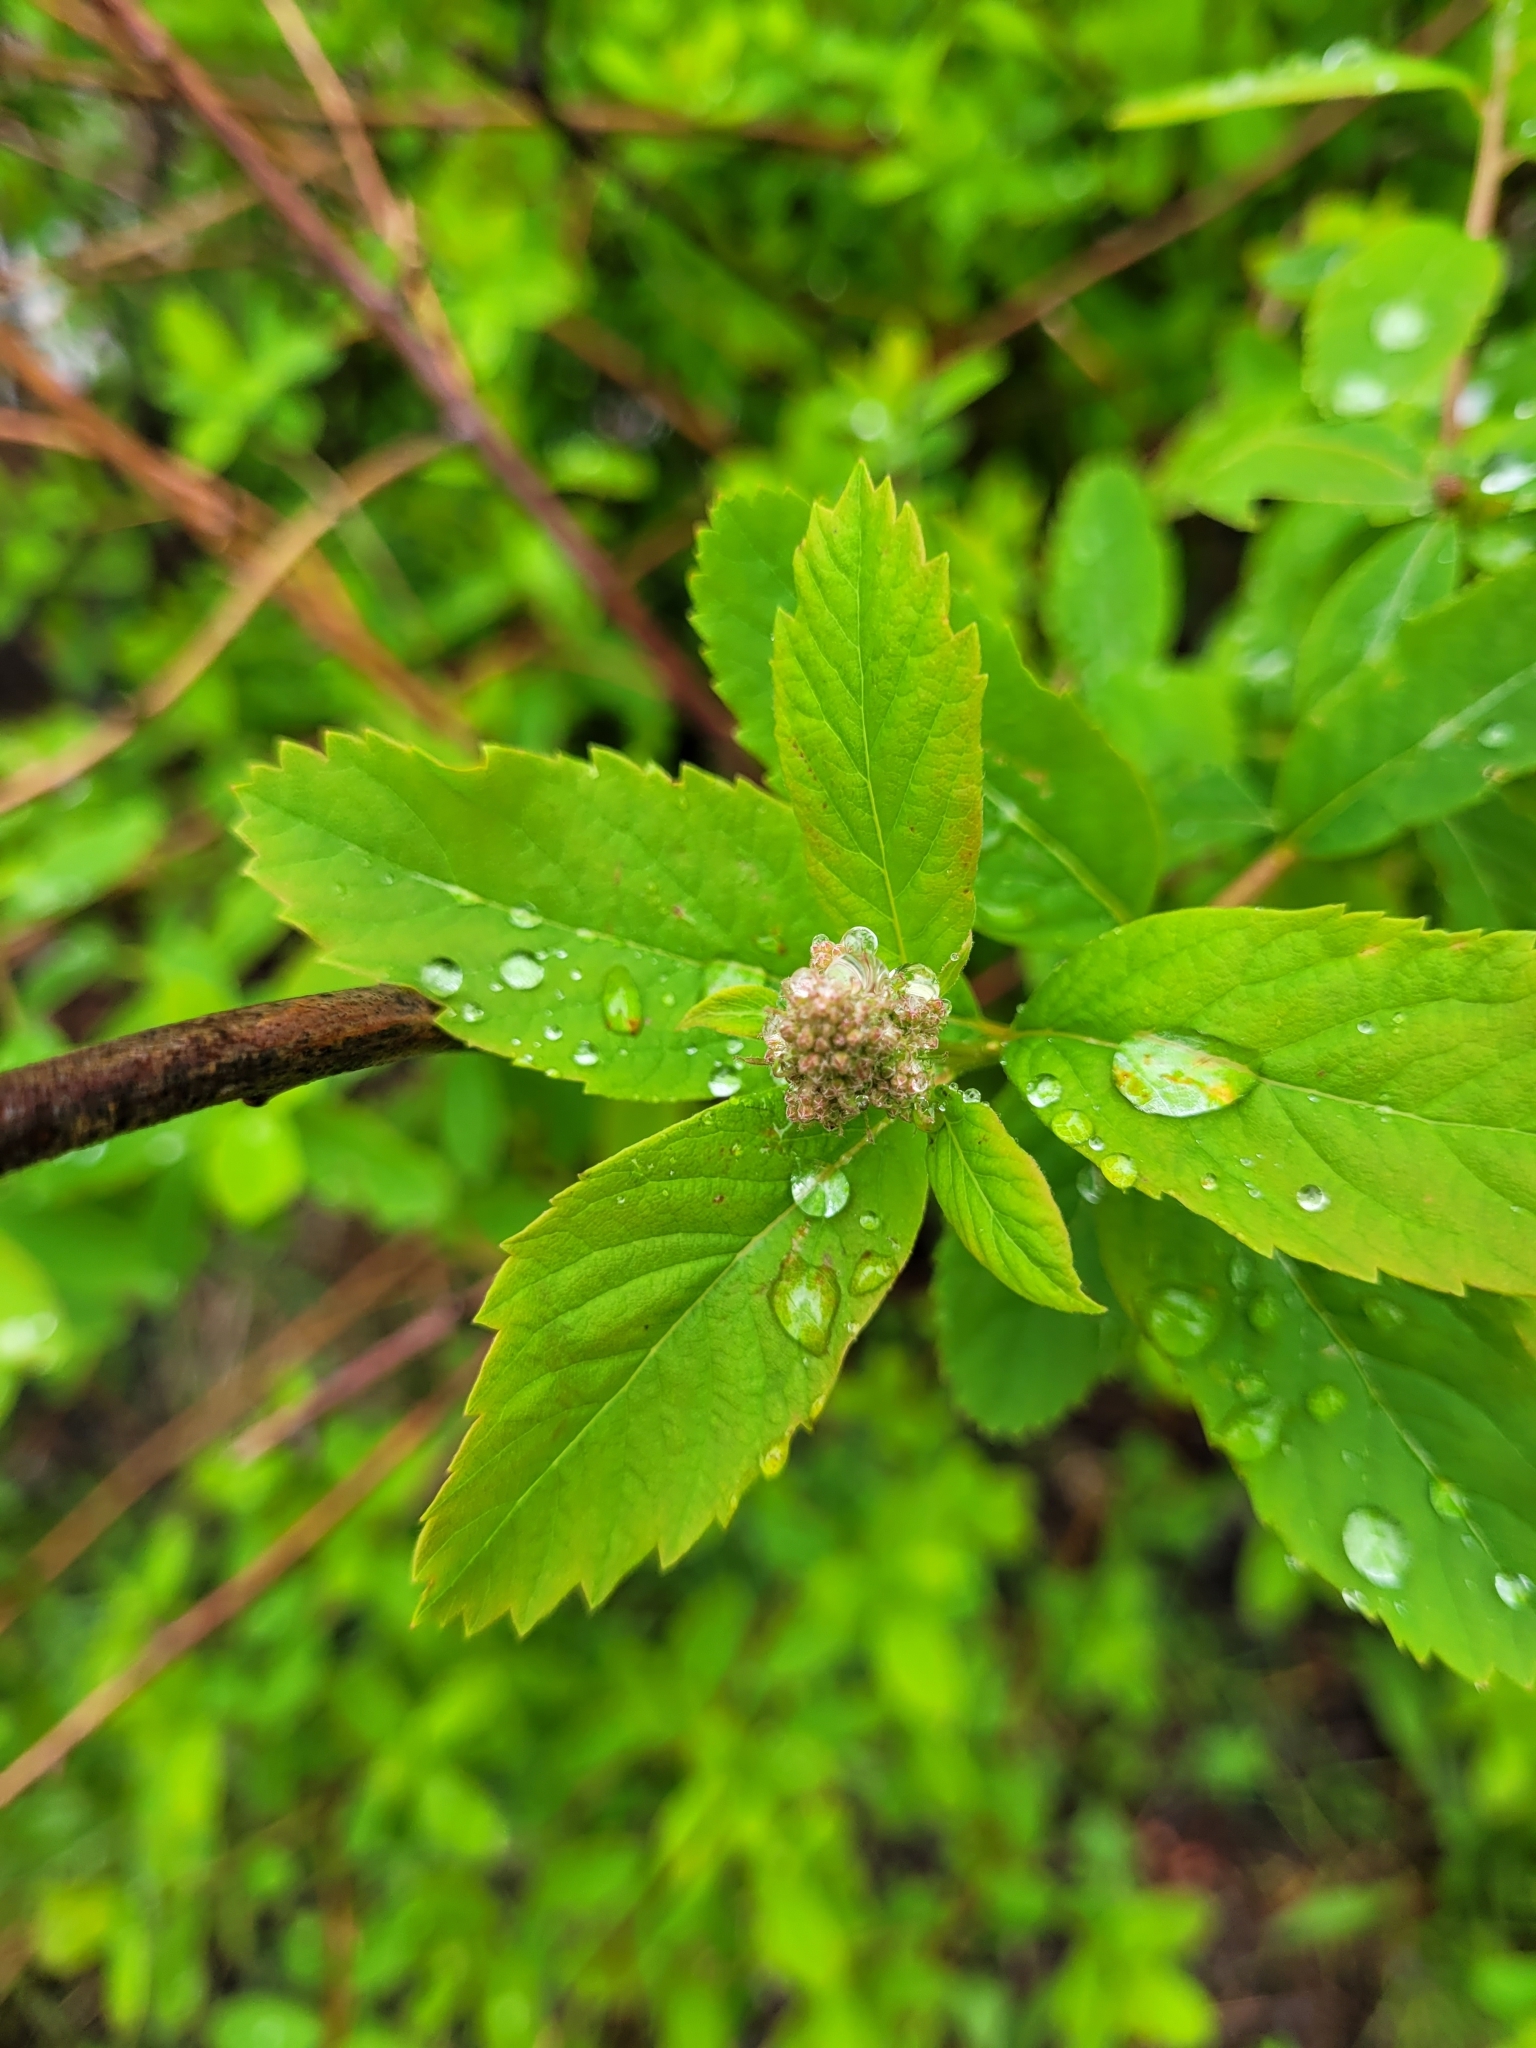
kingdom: Plantae
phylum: Tracheophyta
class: Magnoliopsida
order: Rosales
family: Rosaceae
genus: Spiraea
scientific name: Spiraea douglasii
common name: Steeplebush
